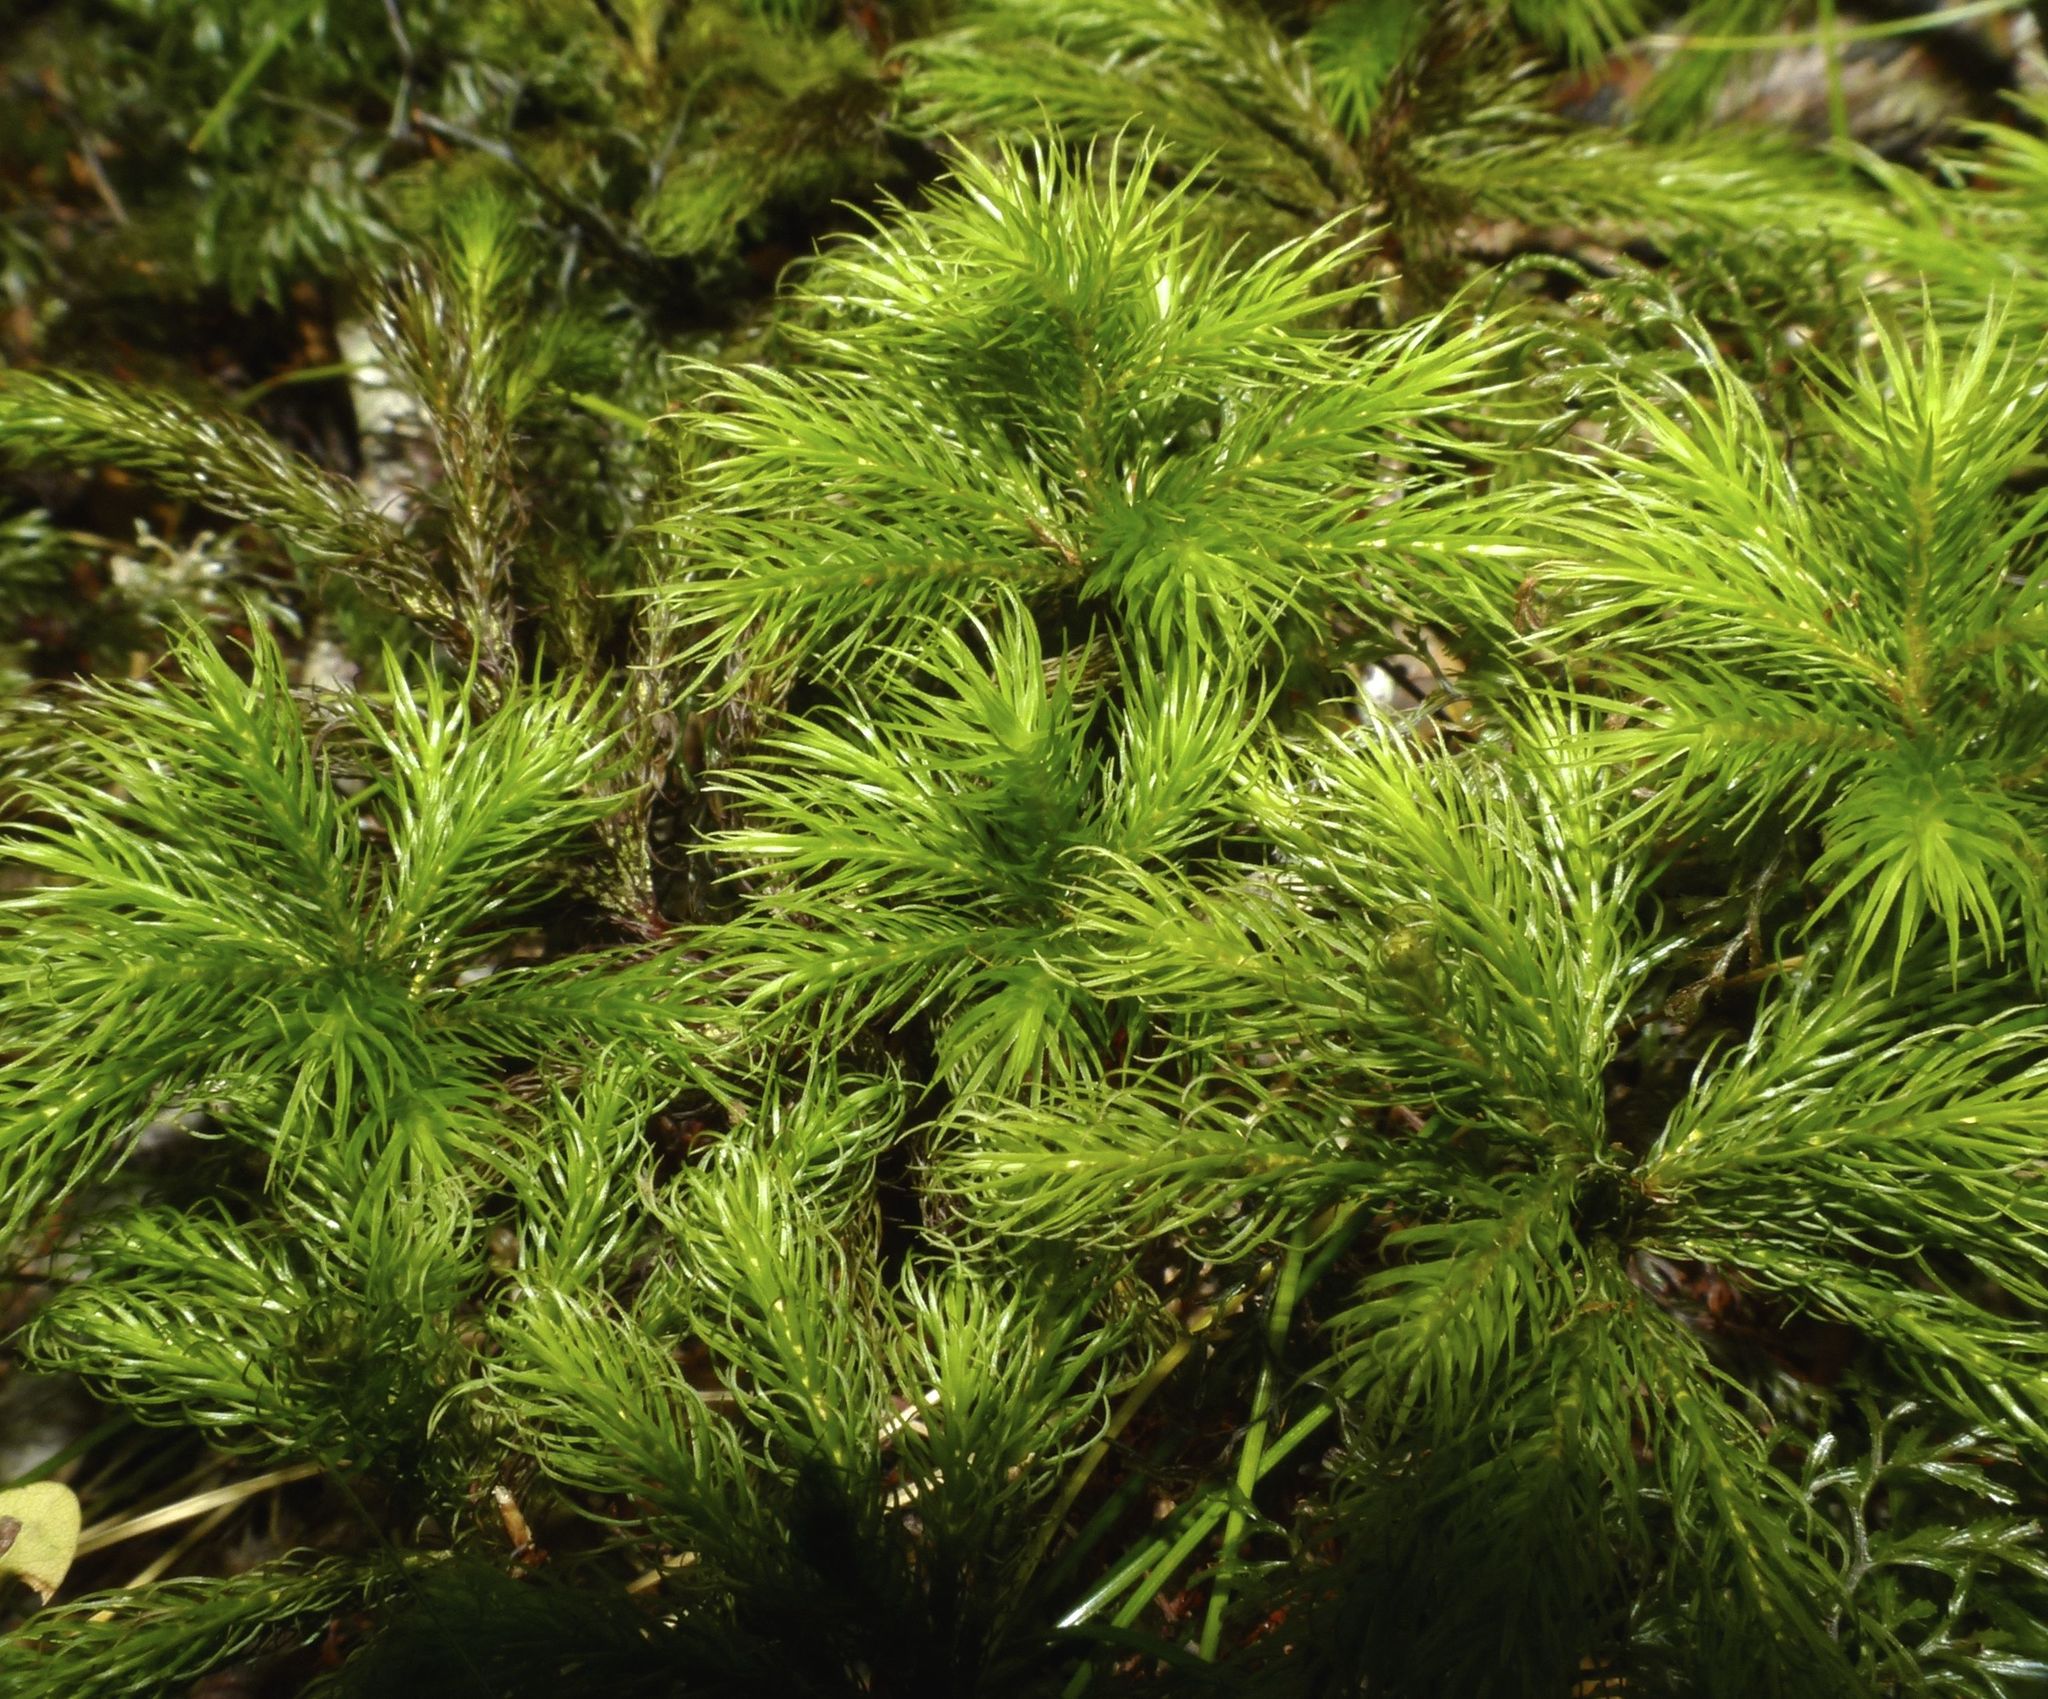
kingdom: Plantae
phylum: Bryophyta
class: Polytrichopsida
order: Polytrichales
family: Polytrichaceae
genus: Dendroligotrichum
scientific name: Dendroligotrichum tongariroense
